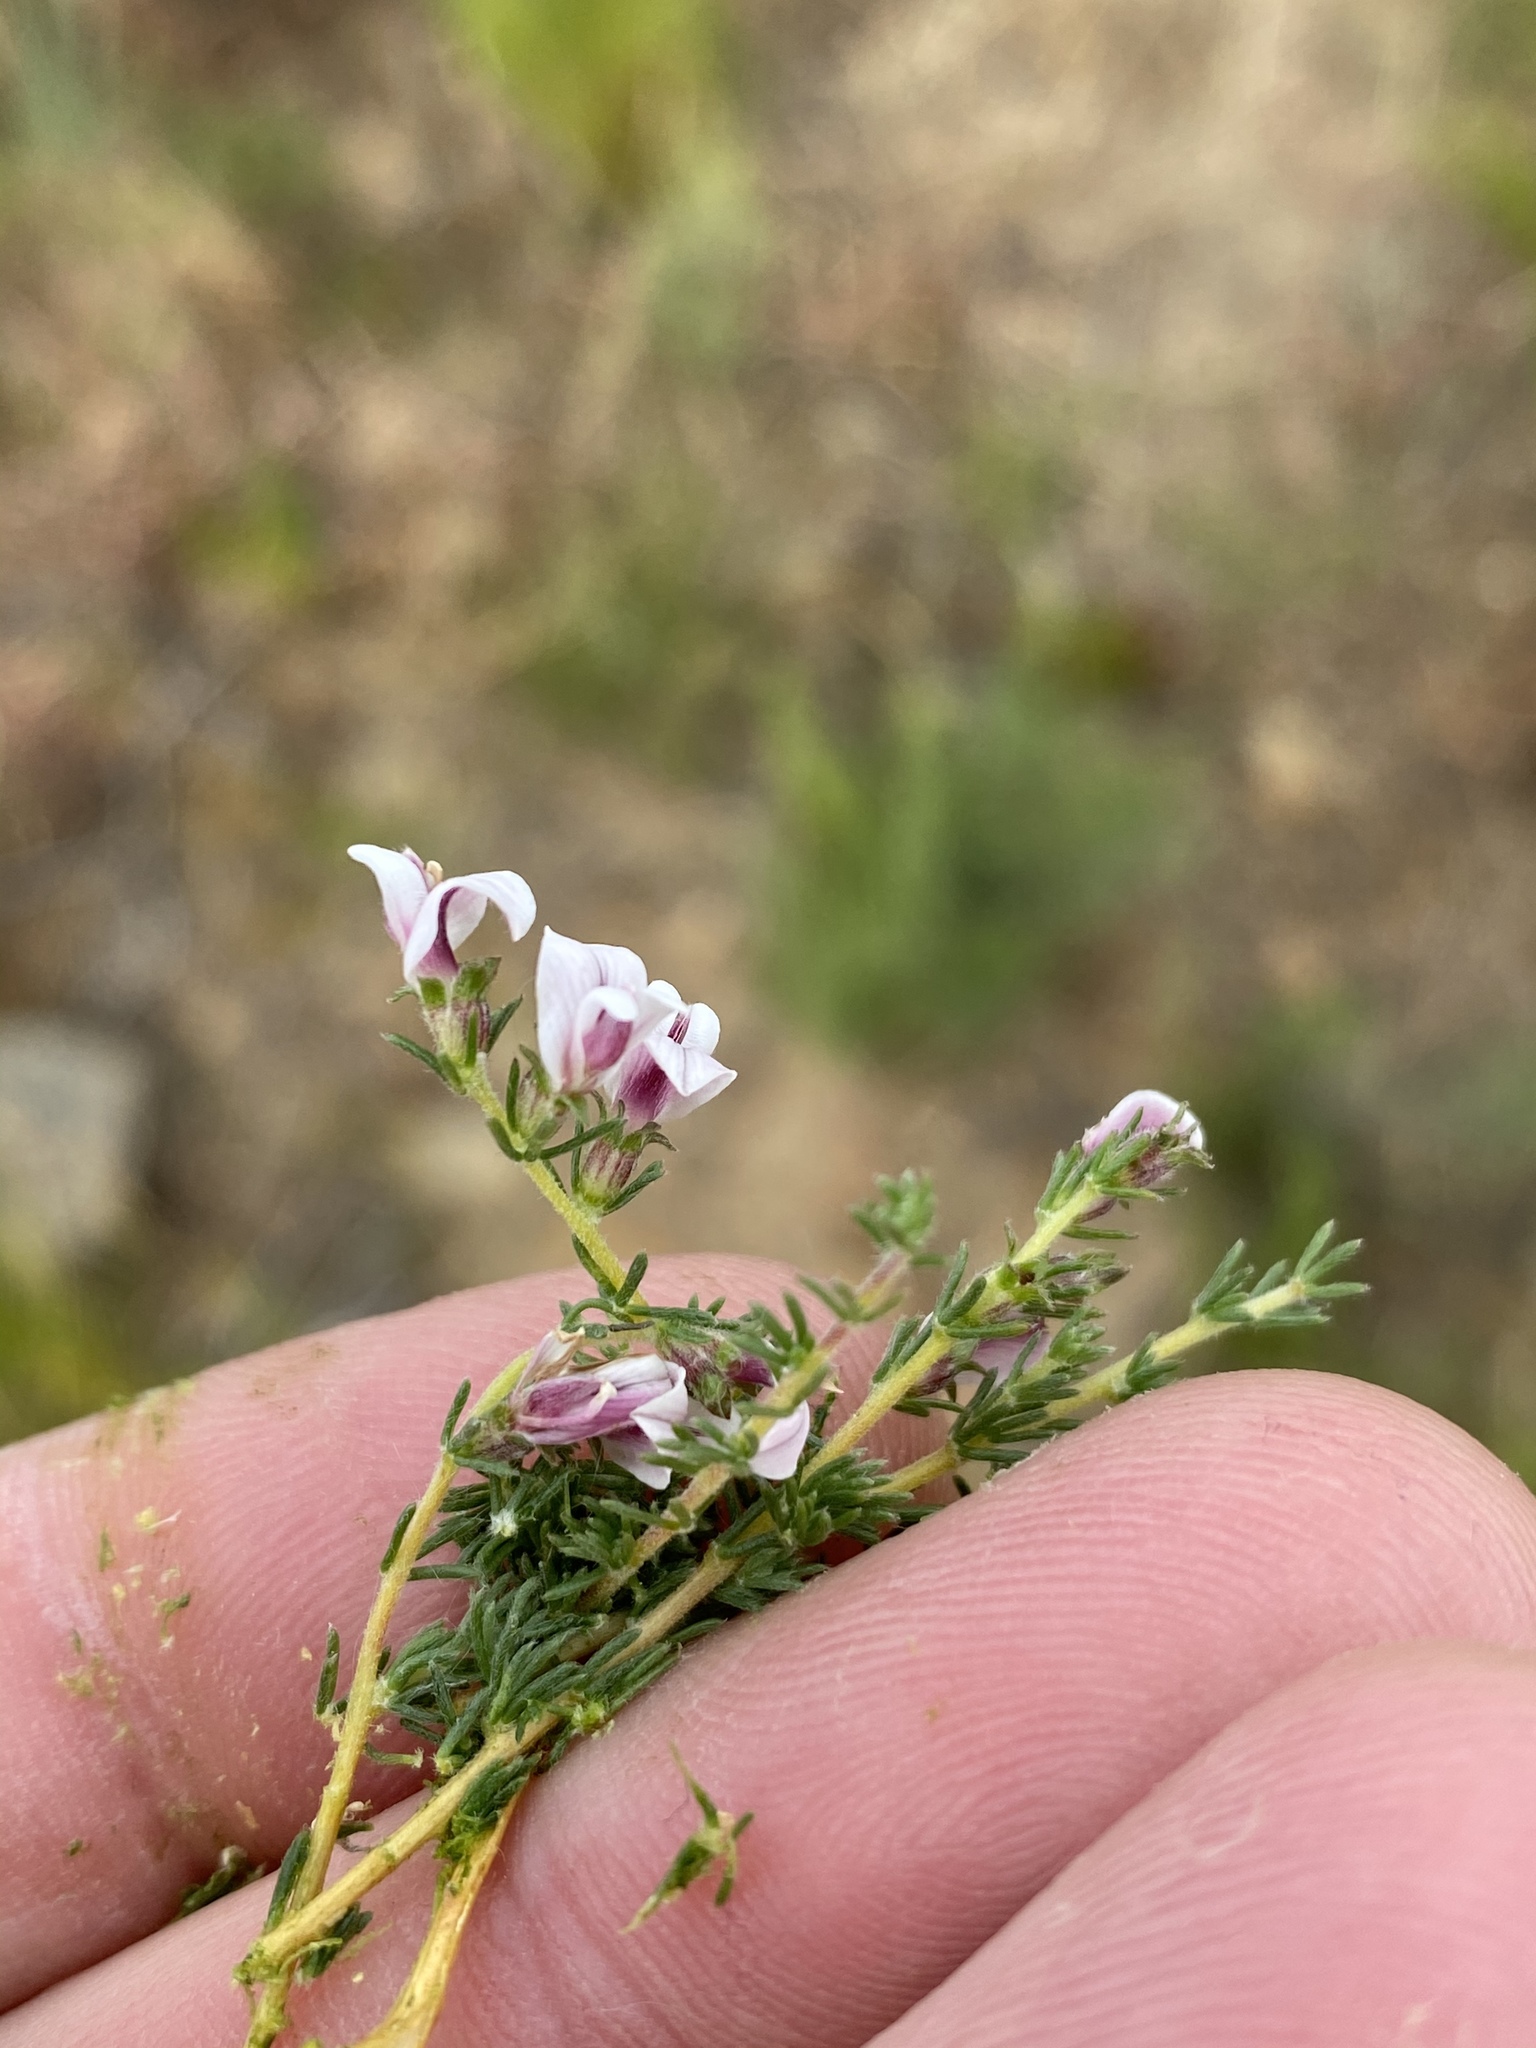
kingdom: Plantae
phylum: Tracheophyta
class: Magnoliopsida
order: Fabales
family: Fabaceae
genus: Aspalathus
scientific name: Aspalathus submissa
